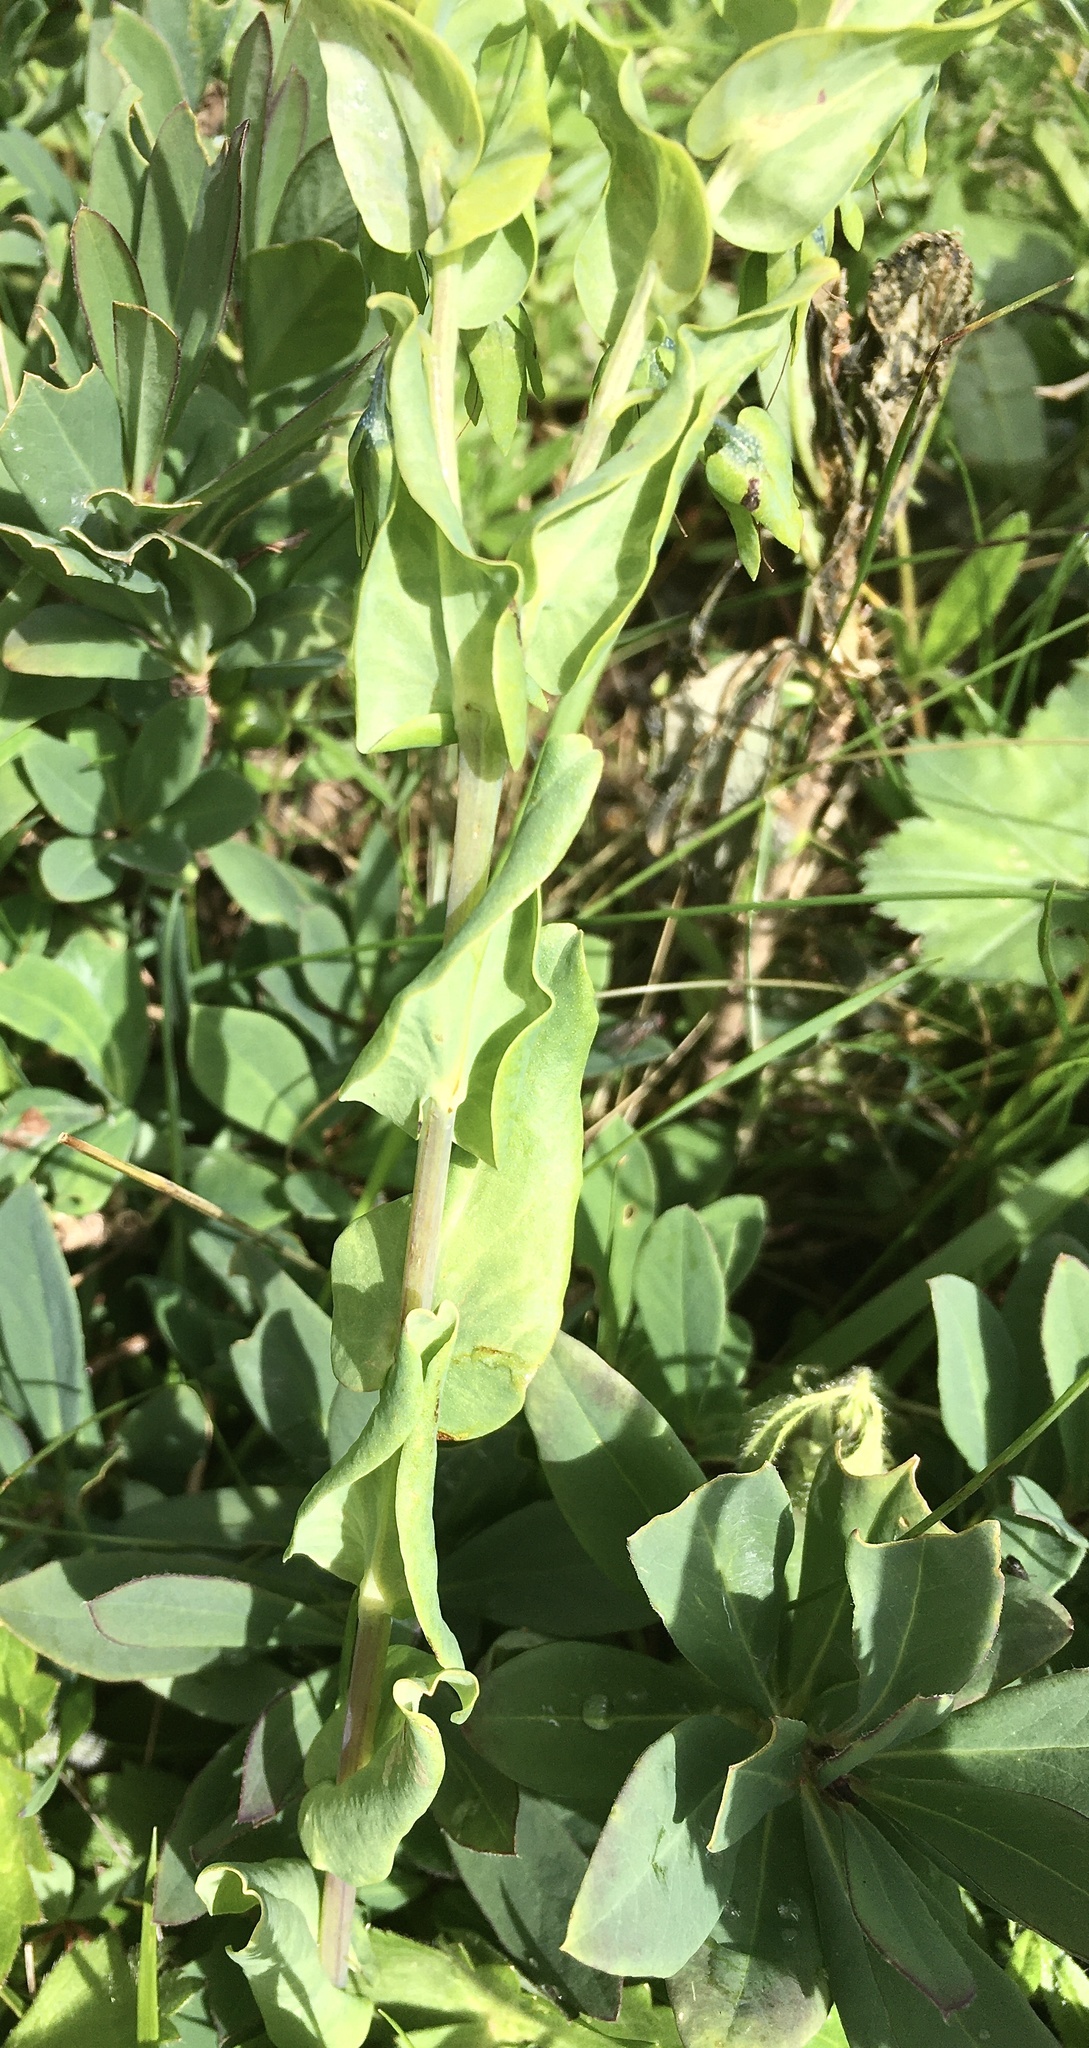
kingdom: Plantae
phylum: Tracheophyta
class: Magnoliopsida
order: Boraginales
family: Boraginaceae
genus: Cerinthe
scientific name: Cerinthe glabra
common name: Smooth honeywort
